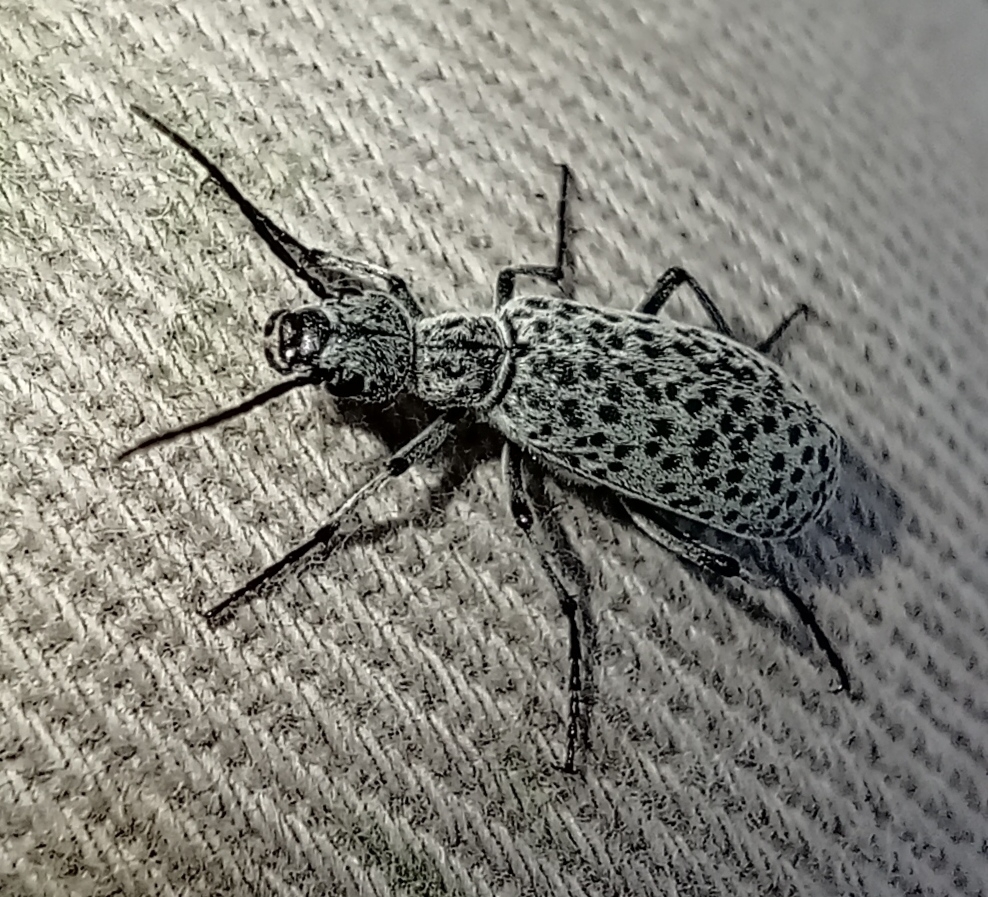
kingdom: Animalia
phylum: Arthropoda
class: Insecta
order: Coleoptera
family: Meloidae
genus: Epicauta
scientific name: Epicauta
